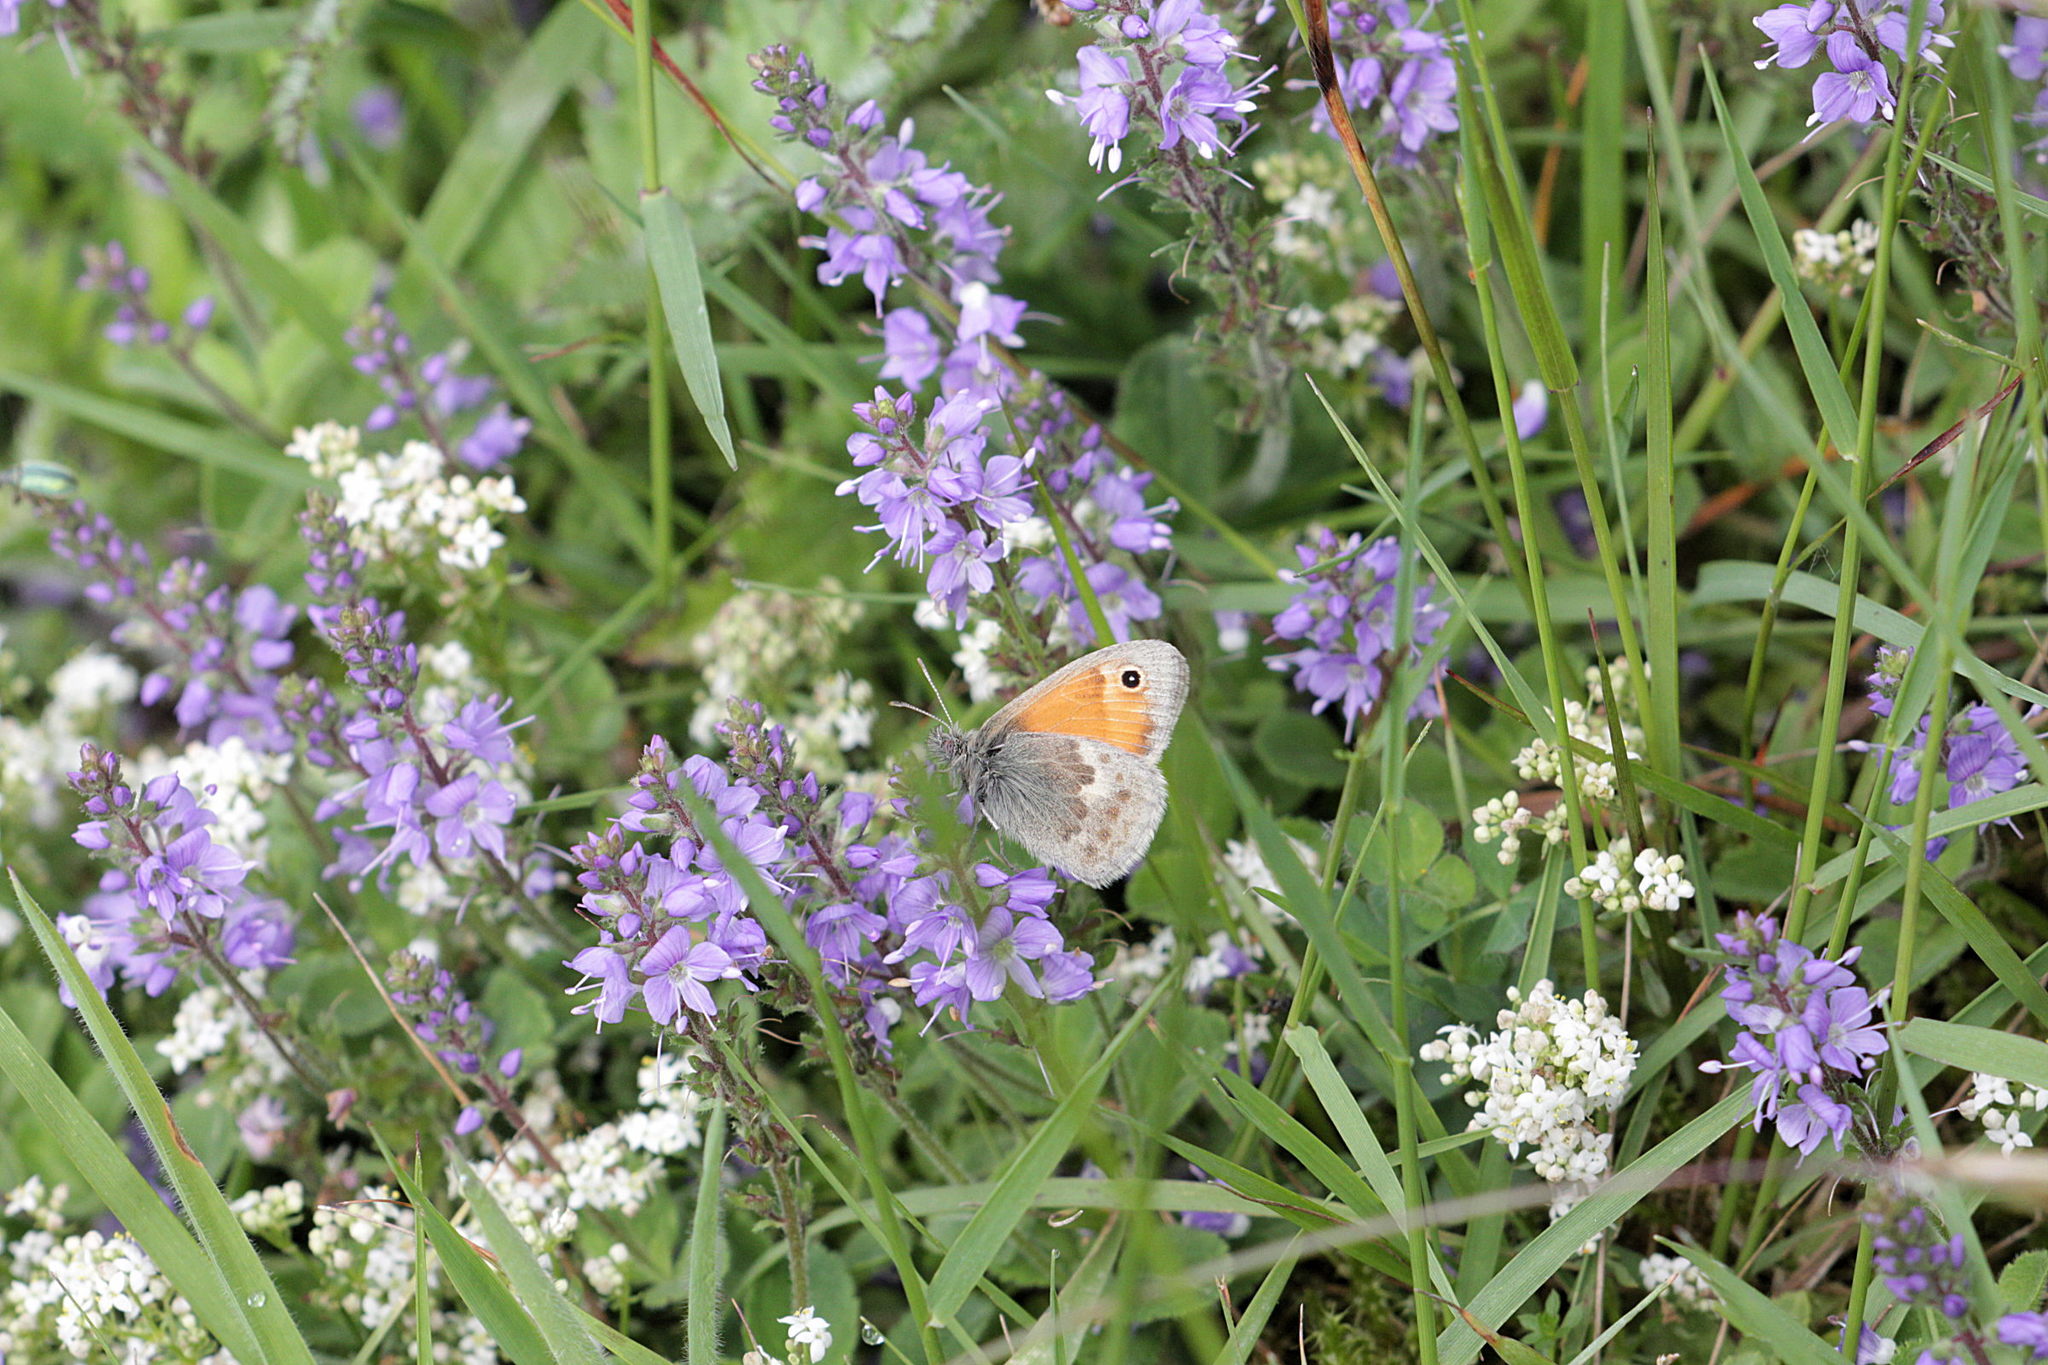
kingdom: Animalia
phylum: Arthropoda
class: Insecta
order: Lepidoptera
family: Nymphalidae
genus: Coenonympha
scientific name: Coenonympha pamphilus
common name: Small heath
